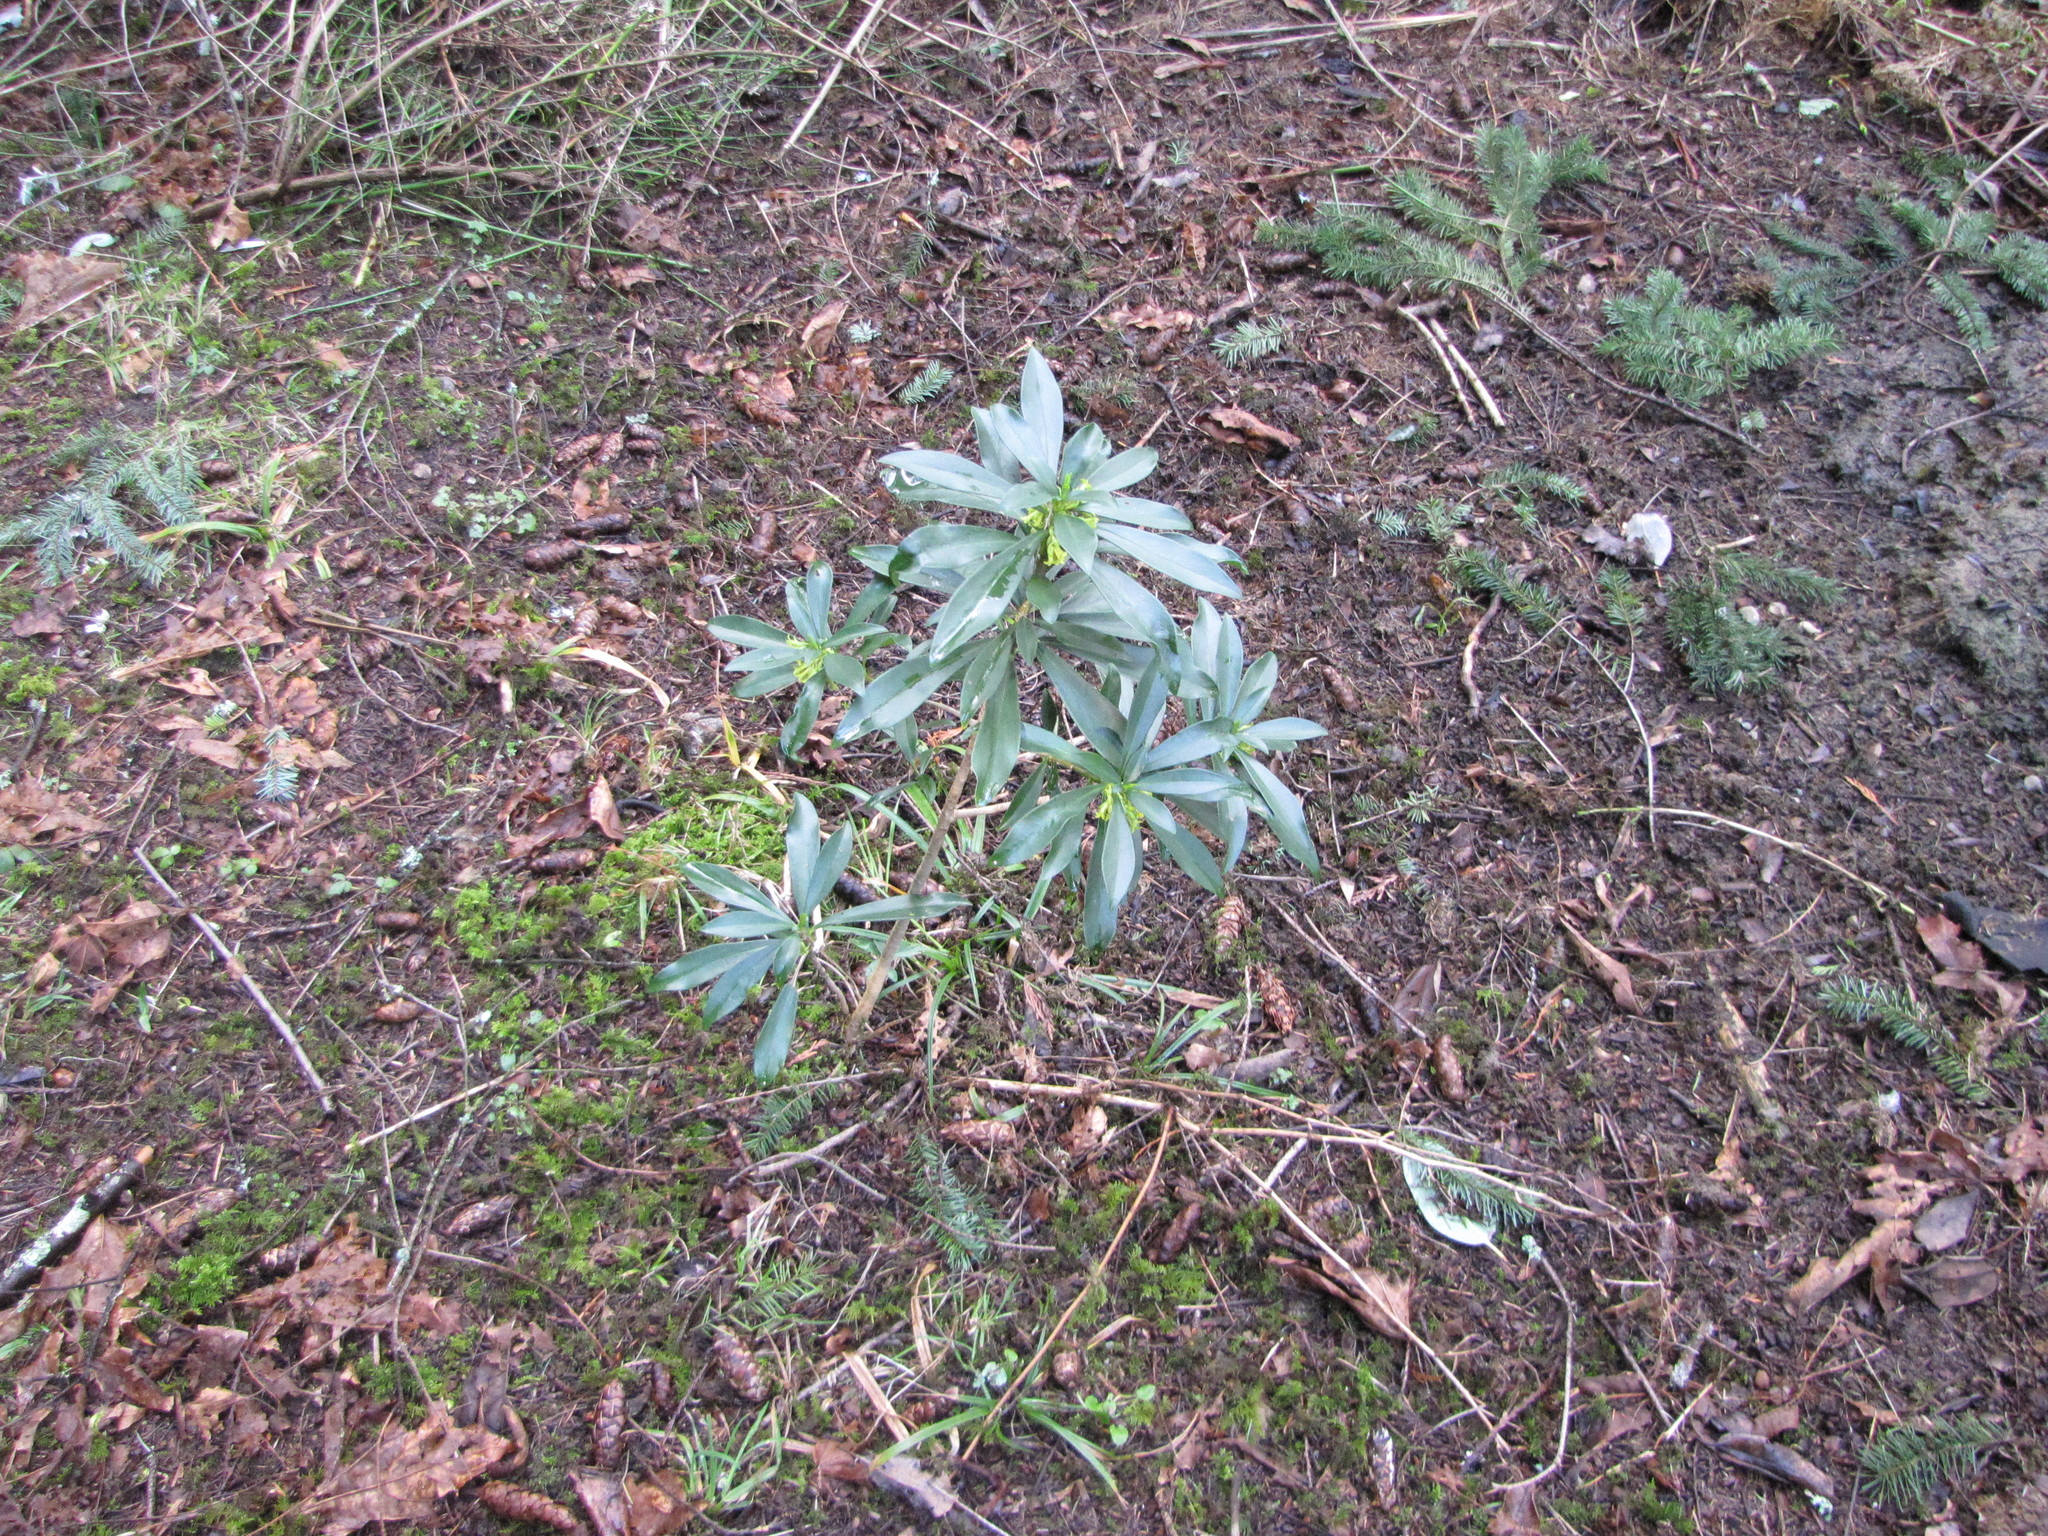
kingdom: Plantae
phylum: Tracheophyta
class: Magnoliopsida
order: Malvales
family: Thymelaeaceae
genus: Daphne
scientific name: Daphne laureola
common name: Spurge-laurel
